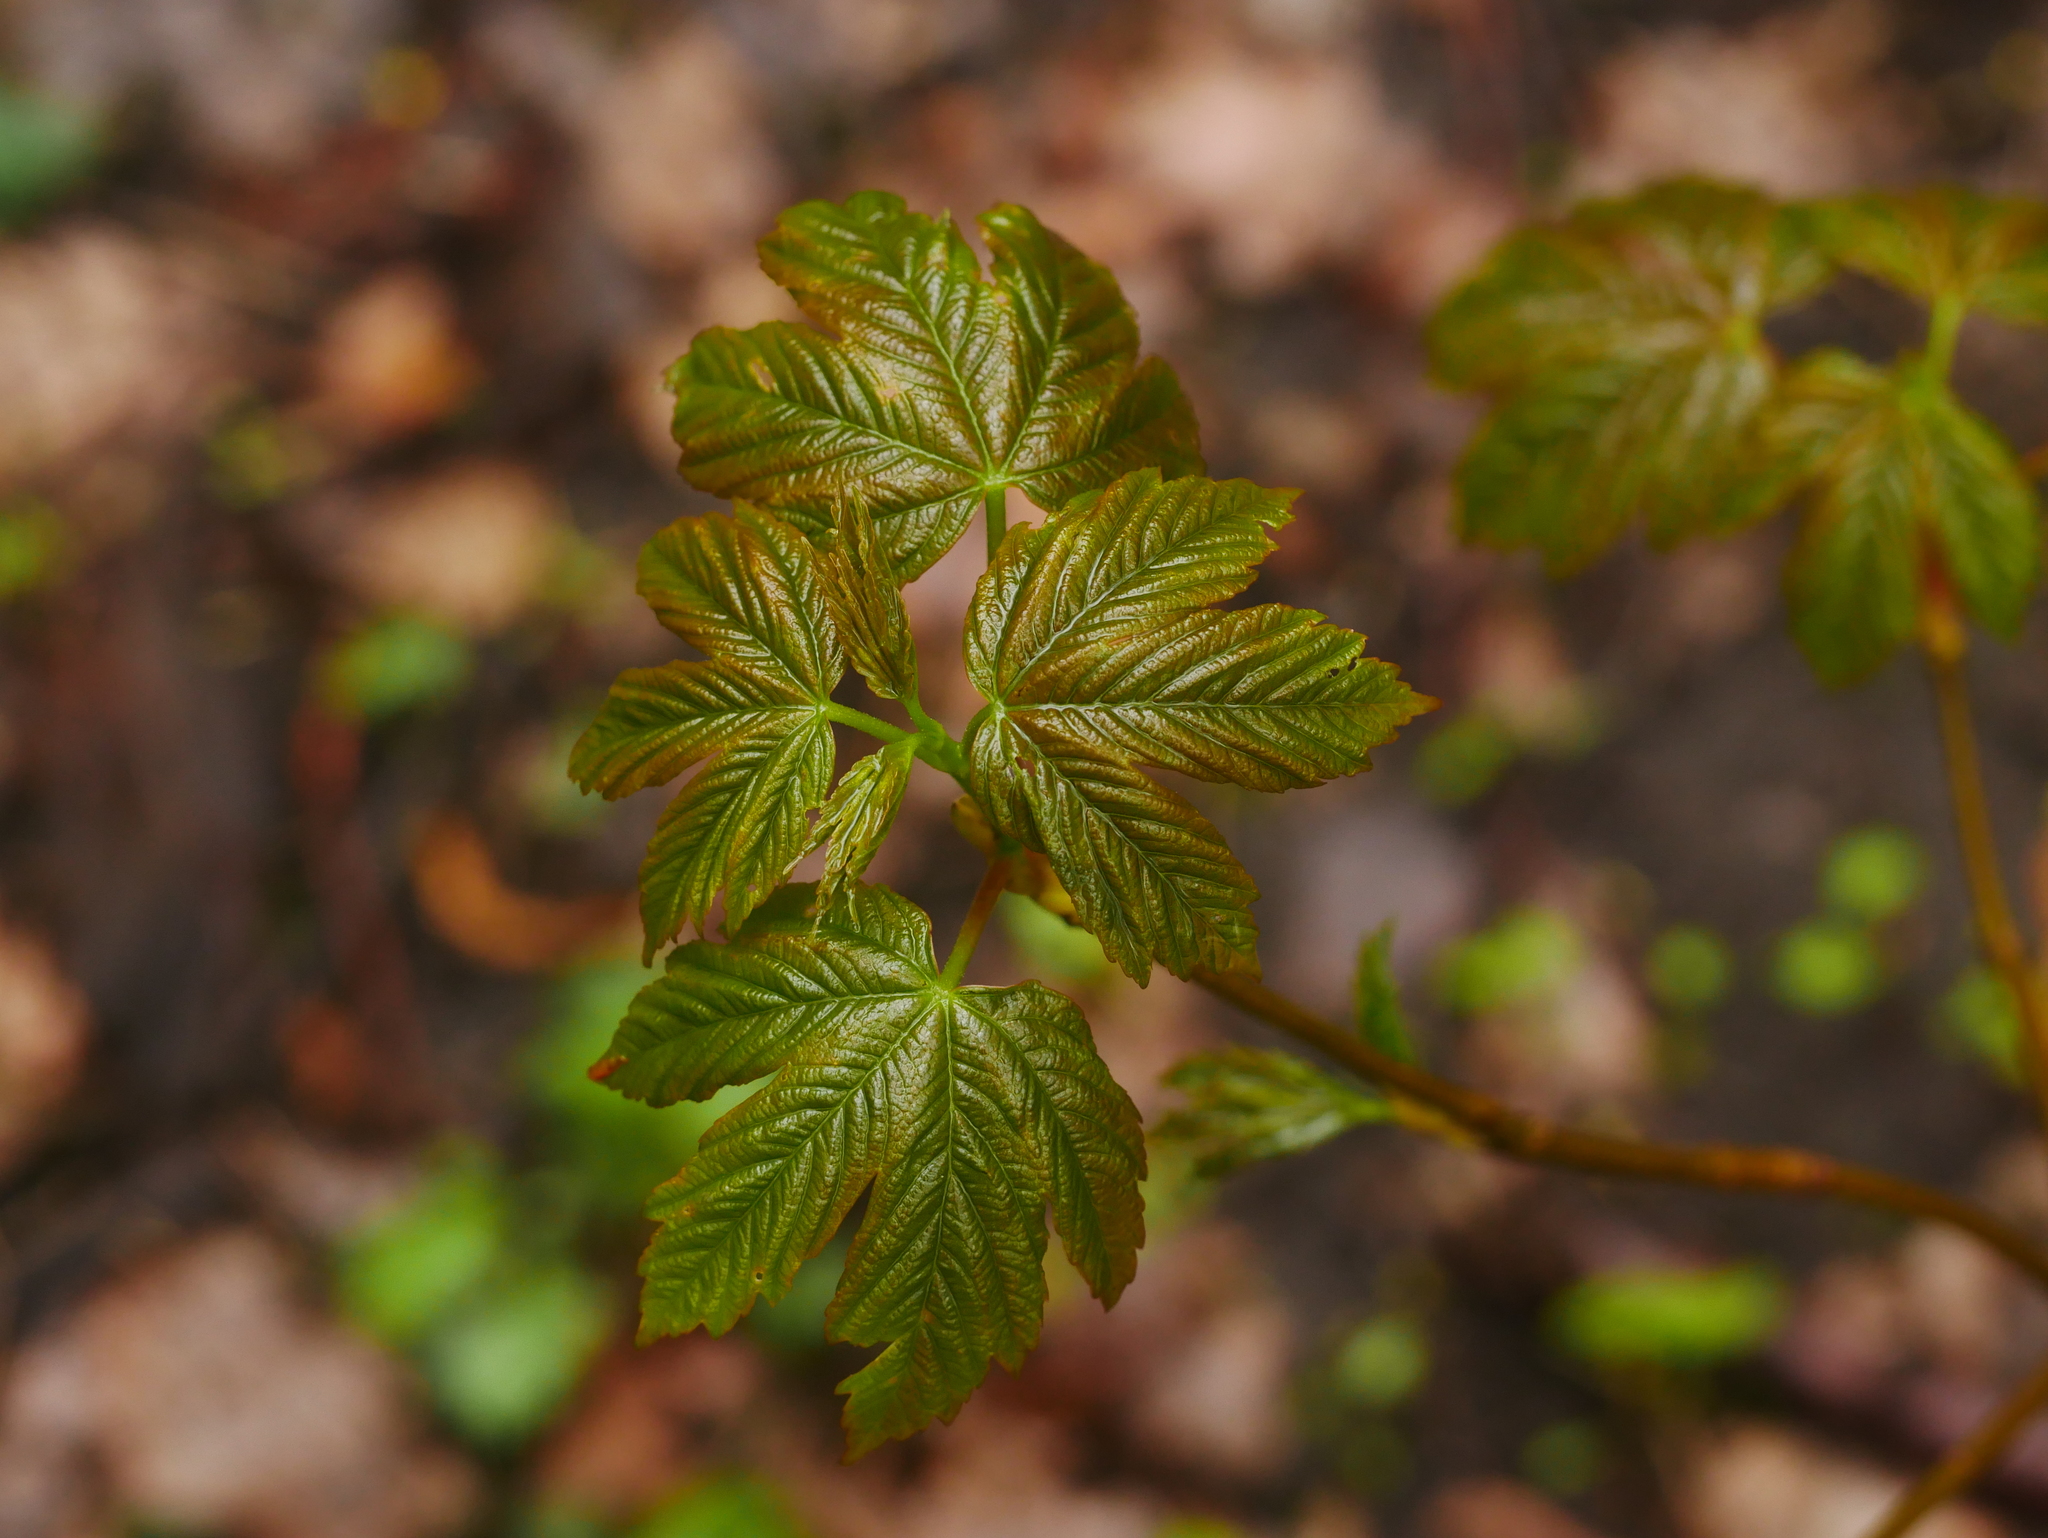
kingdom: Plantae
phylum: Tracheophyta
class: Magnoliopsida
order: Sapindales
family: Sapindaceae
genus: Acer
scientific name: Acer pseudoplatanus
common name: Sycamore
